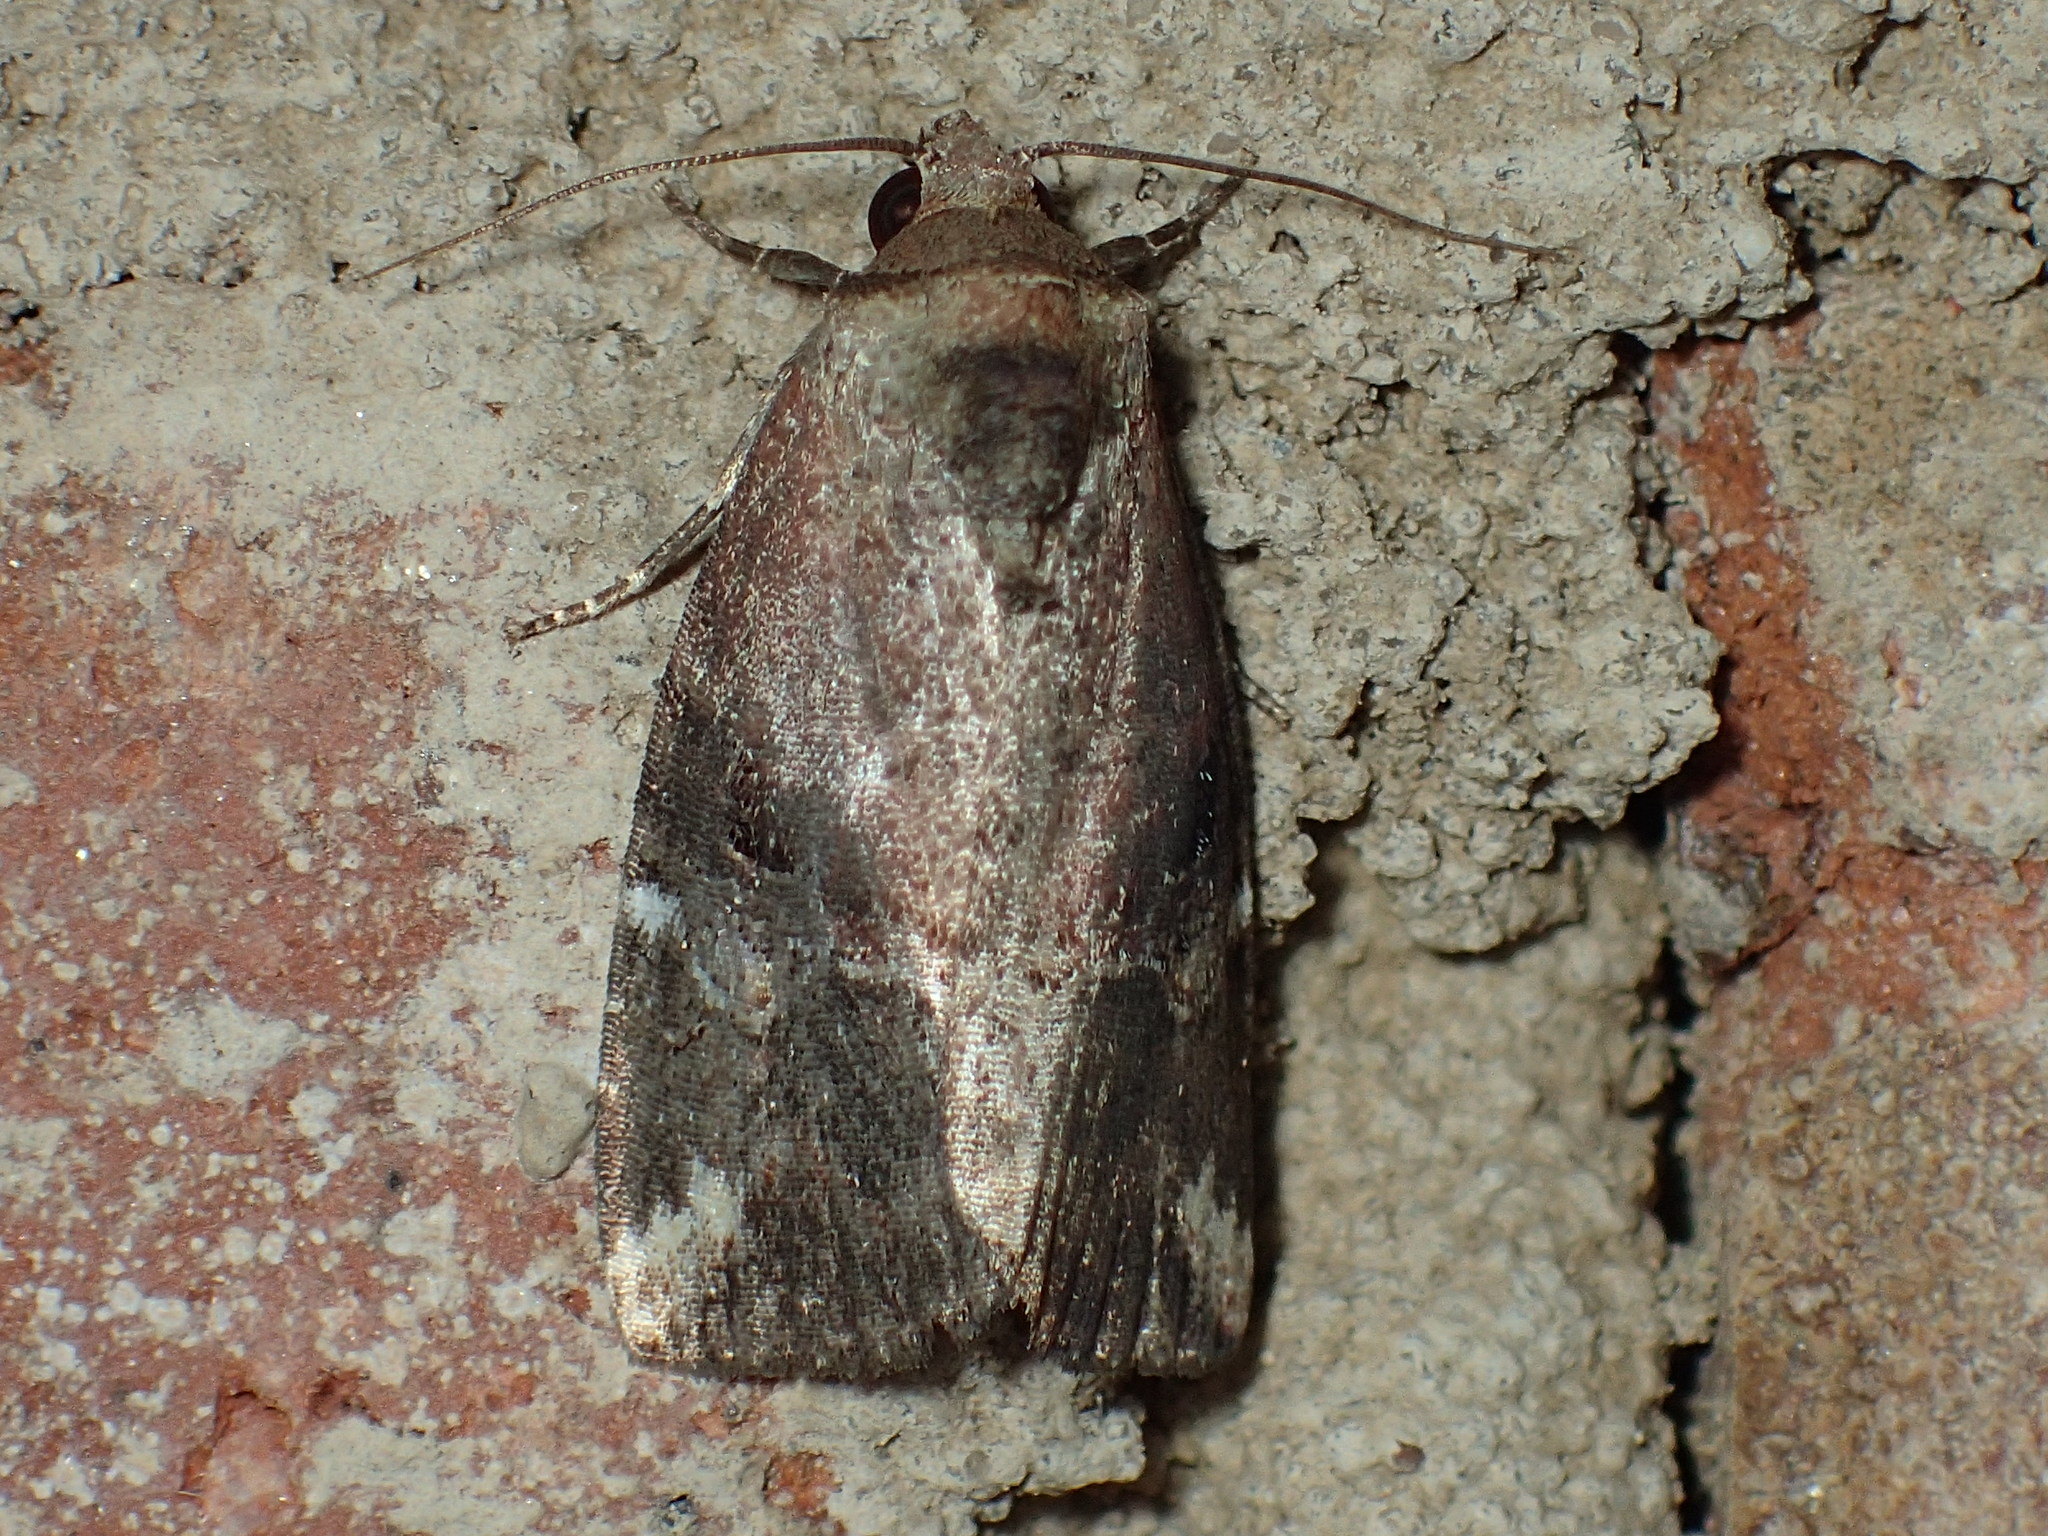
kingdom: Animalia
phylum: Arthropoda
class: Insecta
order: Lepidoptera
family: Noctuidae
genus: Elaphria
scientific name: Elaphria versicolor
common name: Fir harlequin
